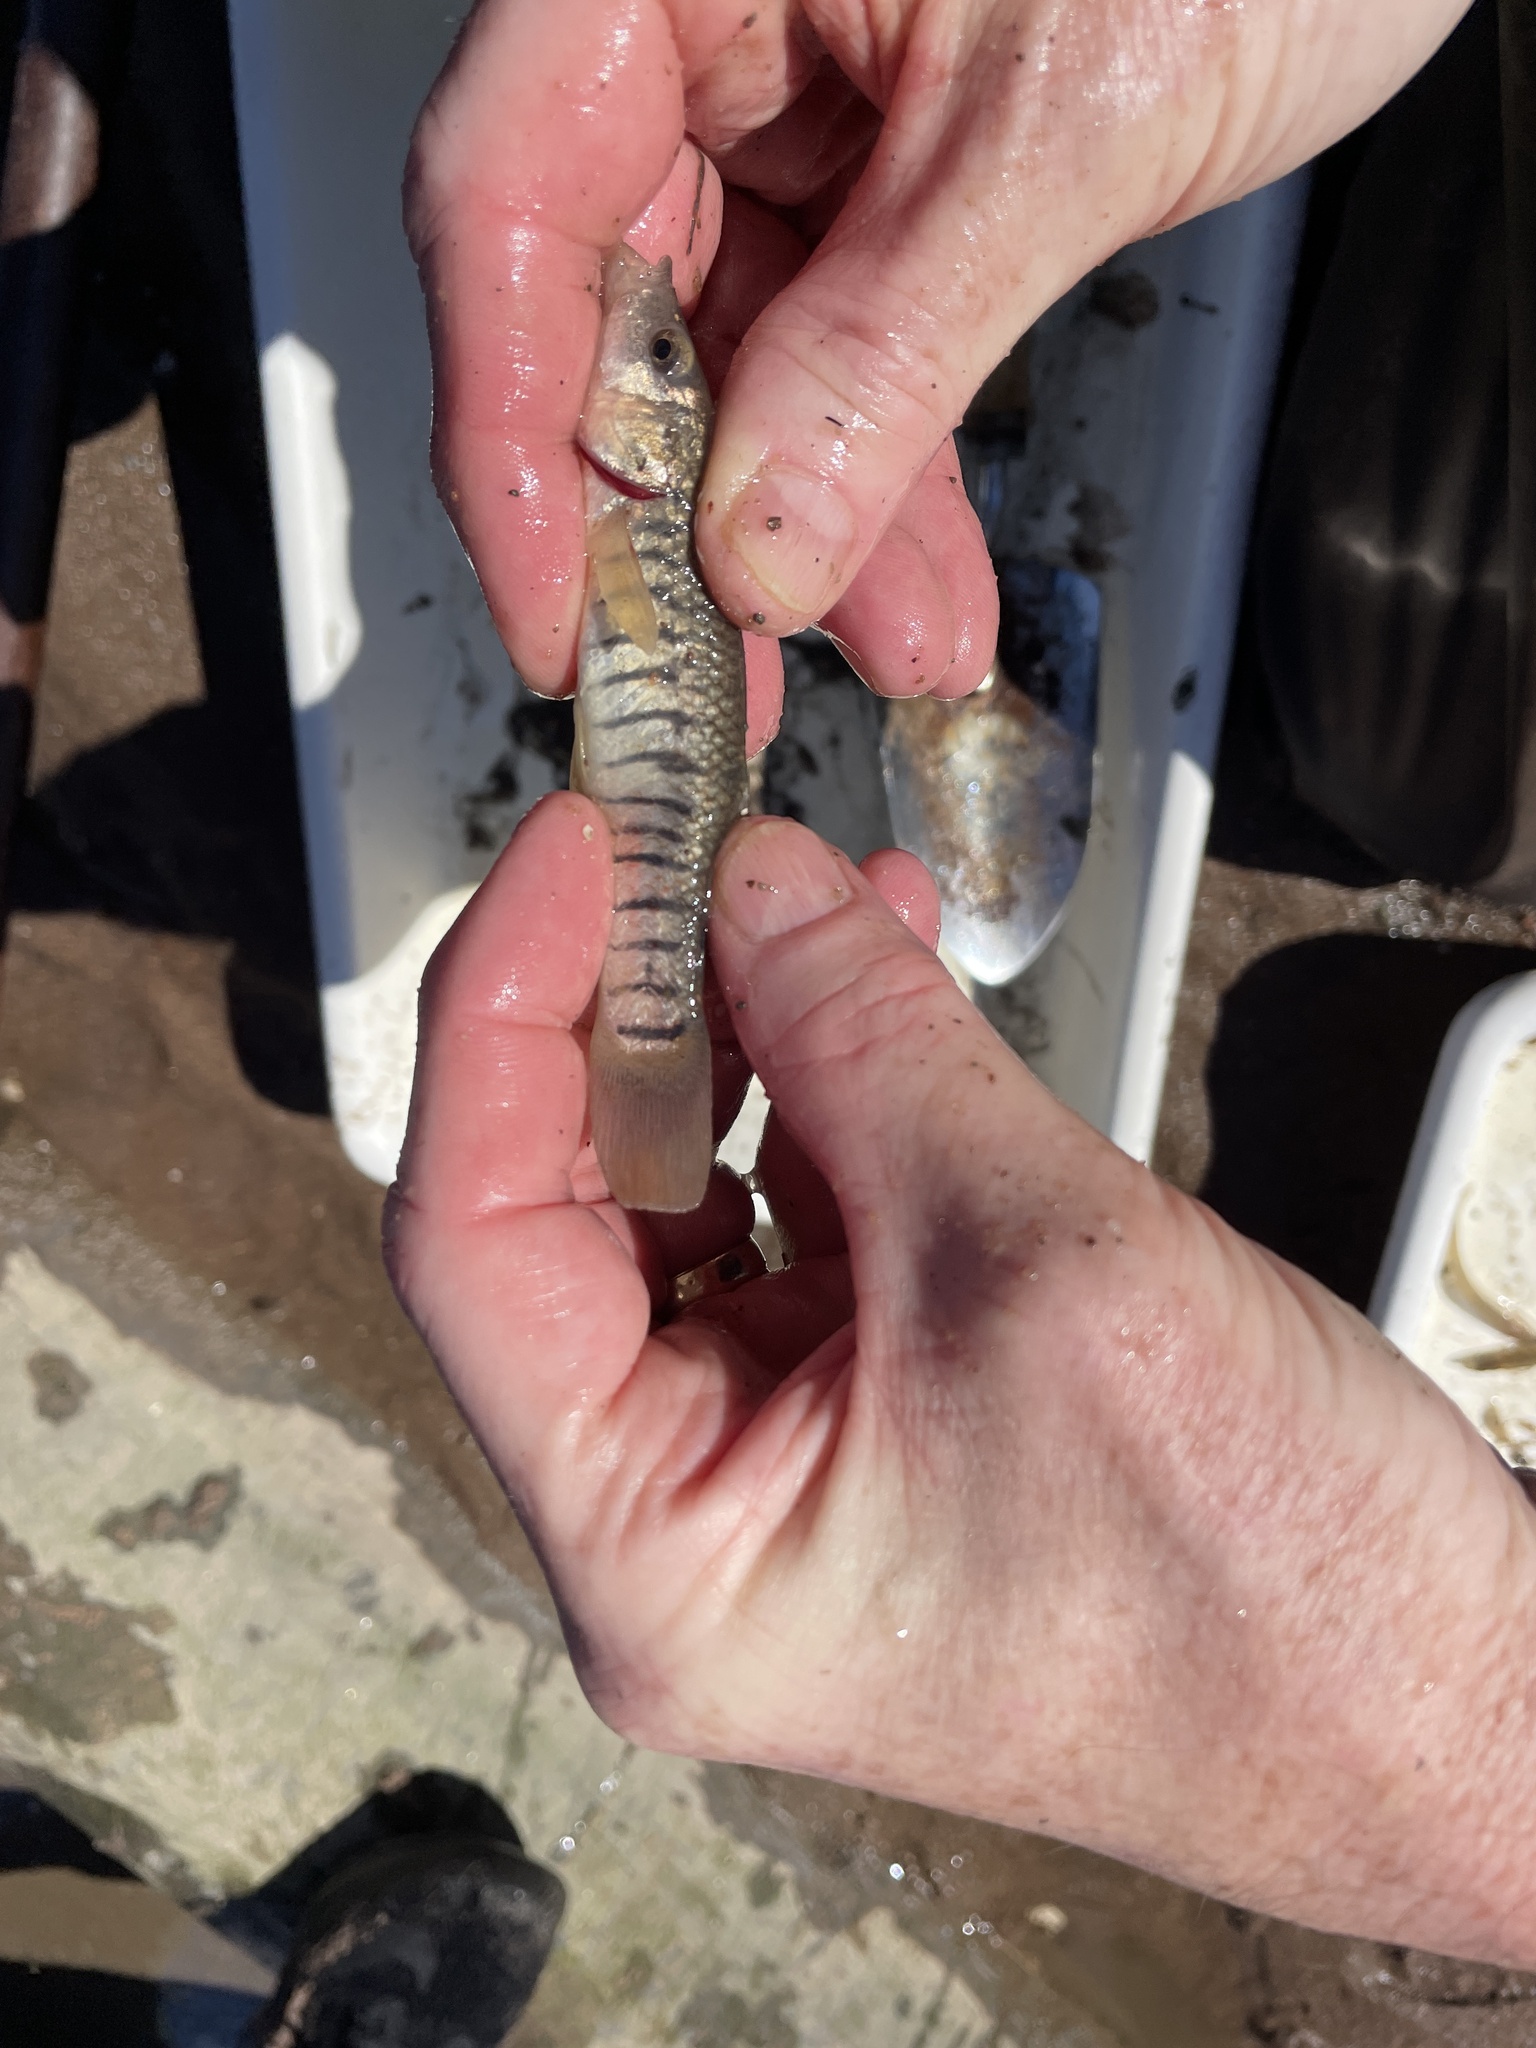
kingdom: Animalia
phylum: Chordata
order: Cyprinodontiformes
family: Fundulidae
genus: Fundulus
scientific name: Fundulus majalis
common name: Striped killifish
